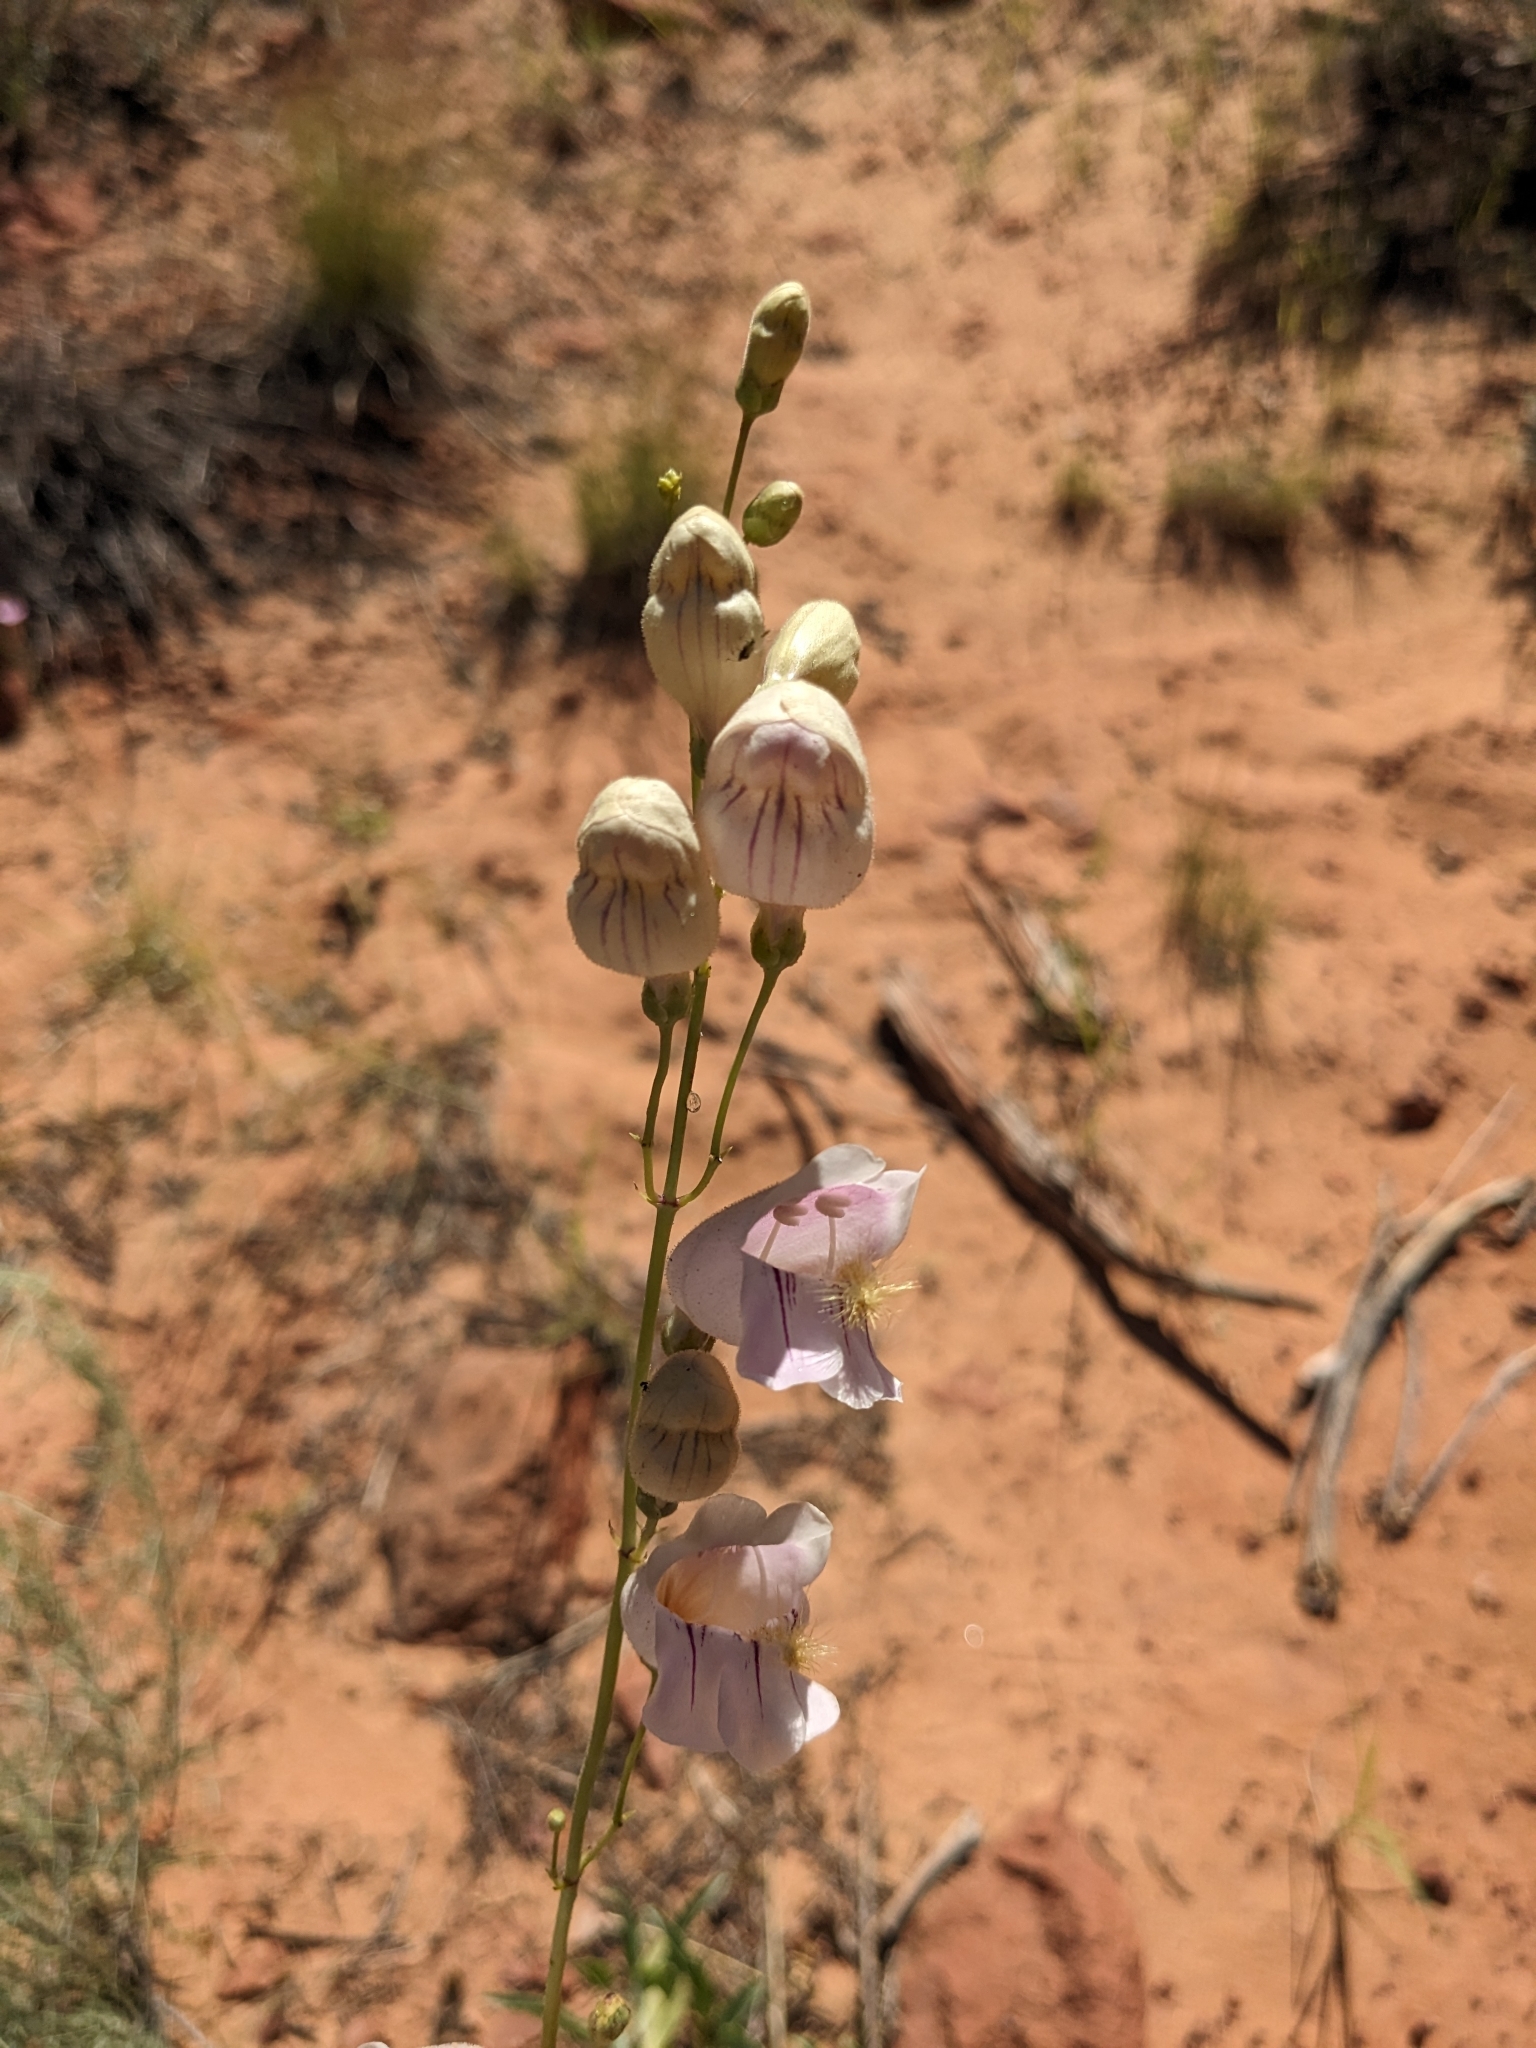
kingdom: Plantae
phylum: Tracheophyta
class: Magnoliopsida
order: Lamiales
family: Plantaginaceae
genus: Penstemon
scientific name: Penstemon palmeri
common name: Palmer penstemon
